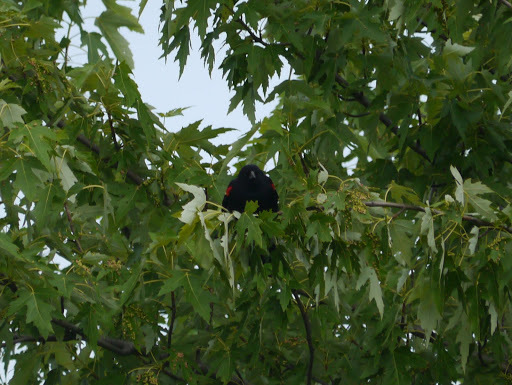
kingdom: Animalia
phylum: Chordata
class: Aves
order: Passeriformes
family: Icteridae
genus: Agelaius
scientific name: Agelaius phoeniceus
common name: Red-winged blackbird
